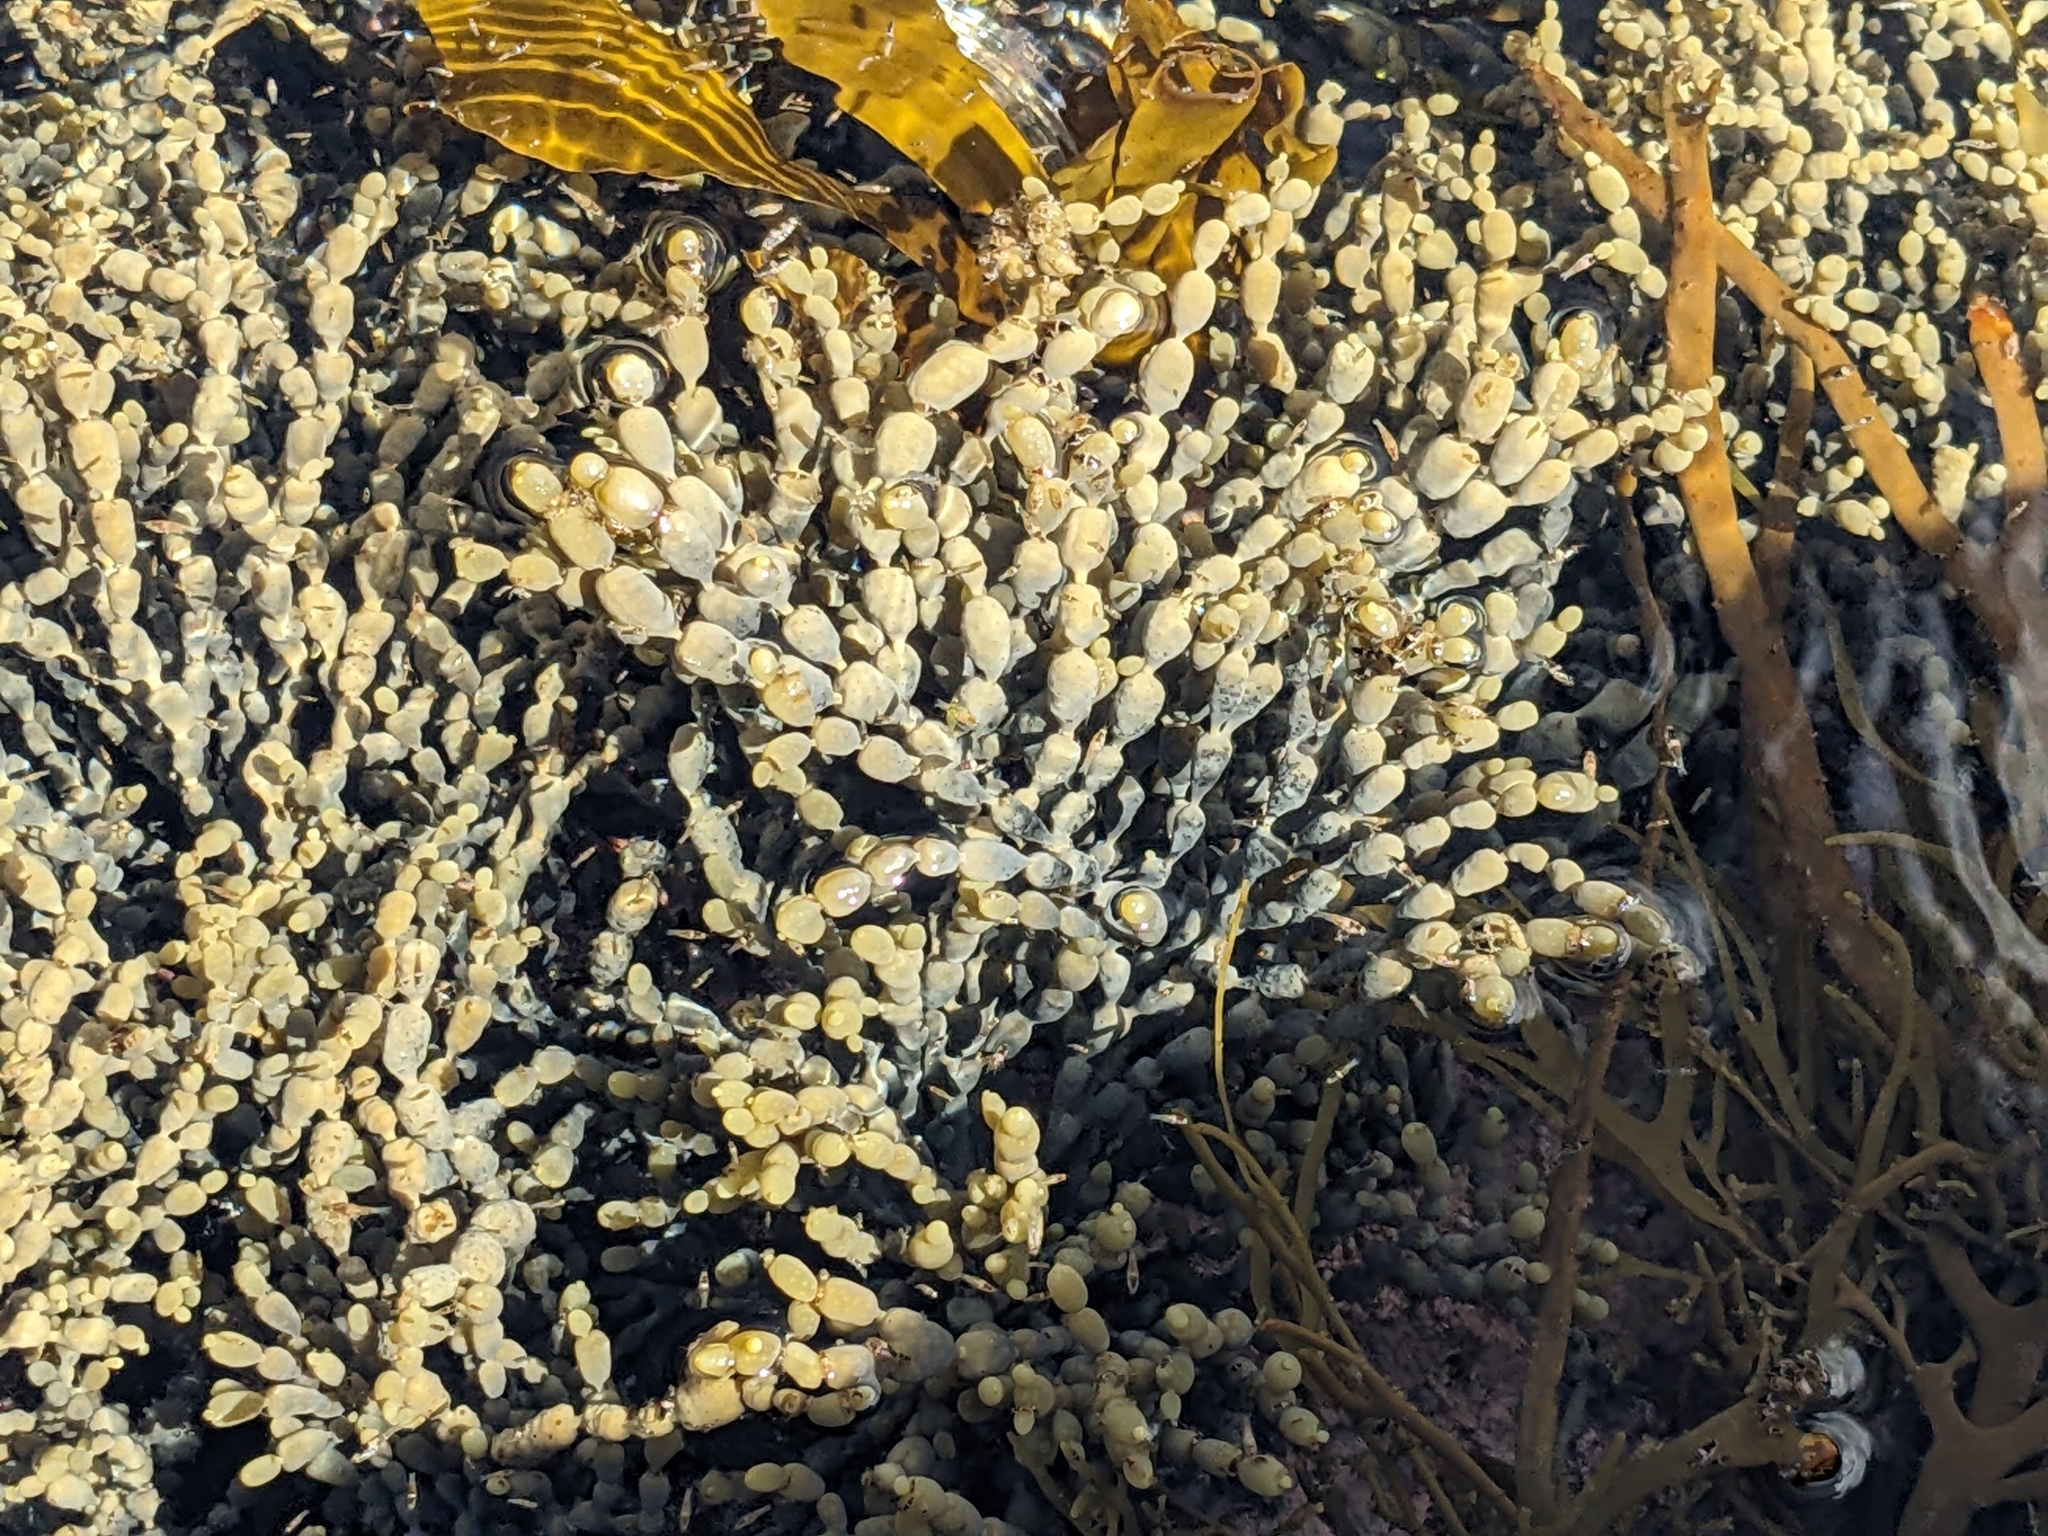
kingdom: Chromista
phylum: Ochrophyta
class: Phaeophyceae
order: Fucales
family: Hormosiraceae
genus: Hormosira
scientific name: Hormosira banksii
